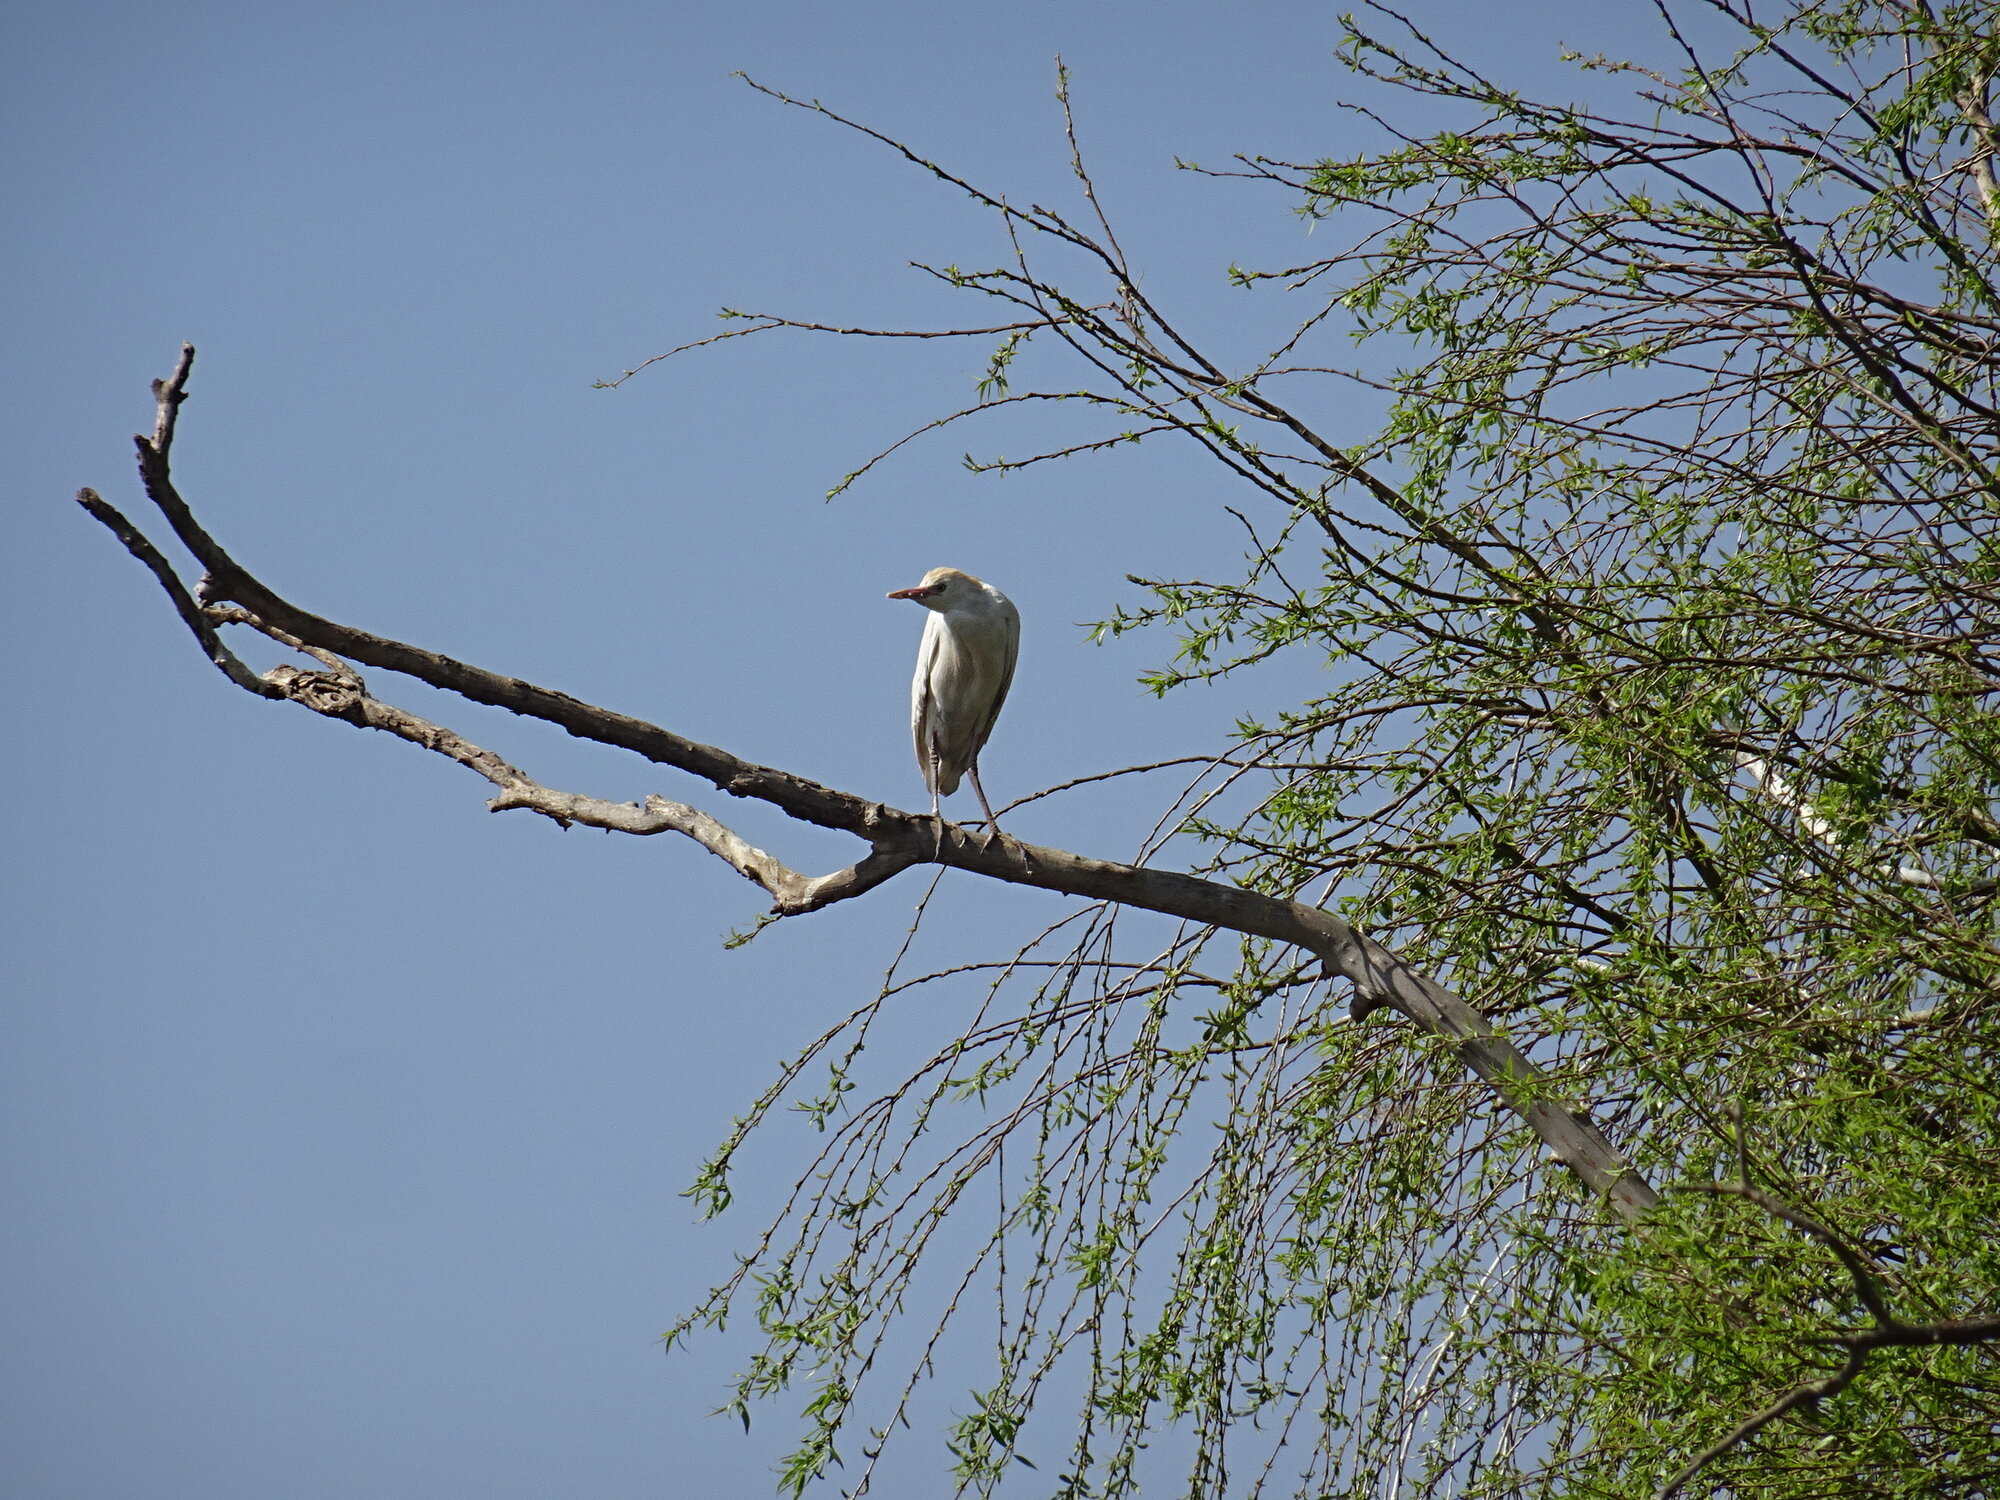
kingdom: Animalia
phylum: Chordata
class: Aves
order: Pelecaniformes
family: Ardeidae
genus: Bubulcus
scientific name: Bubulcus ibis
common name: Cattle egret
